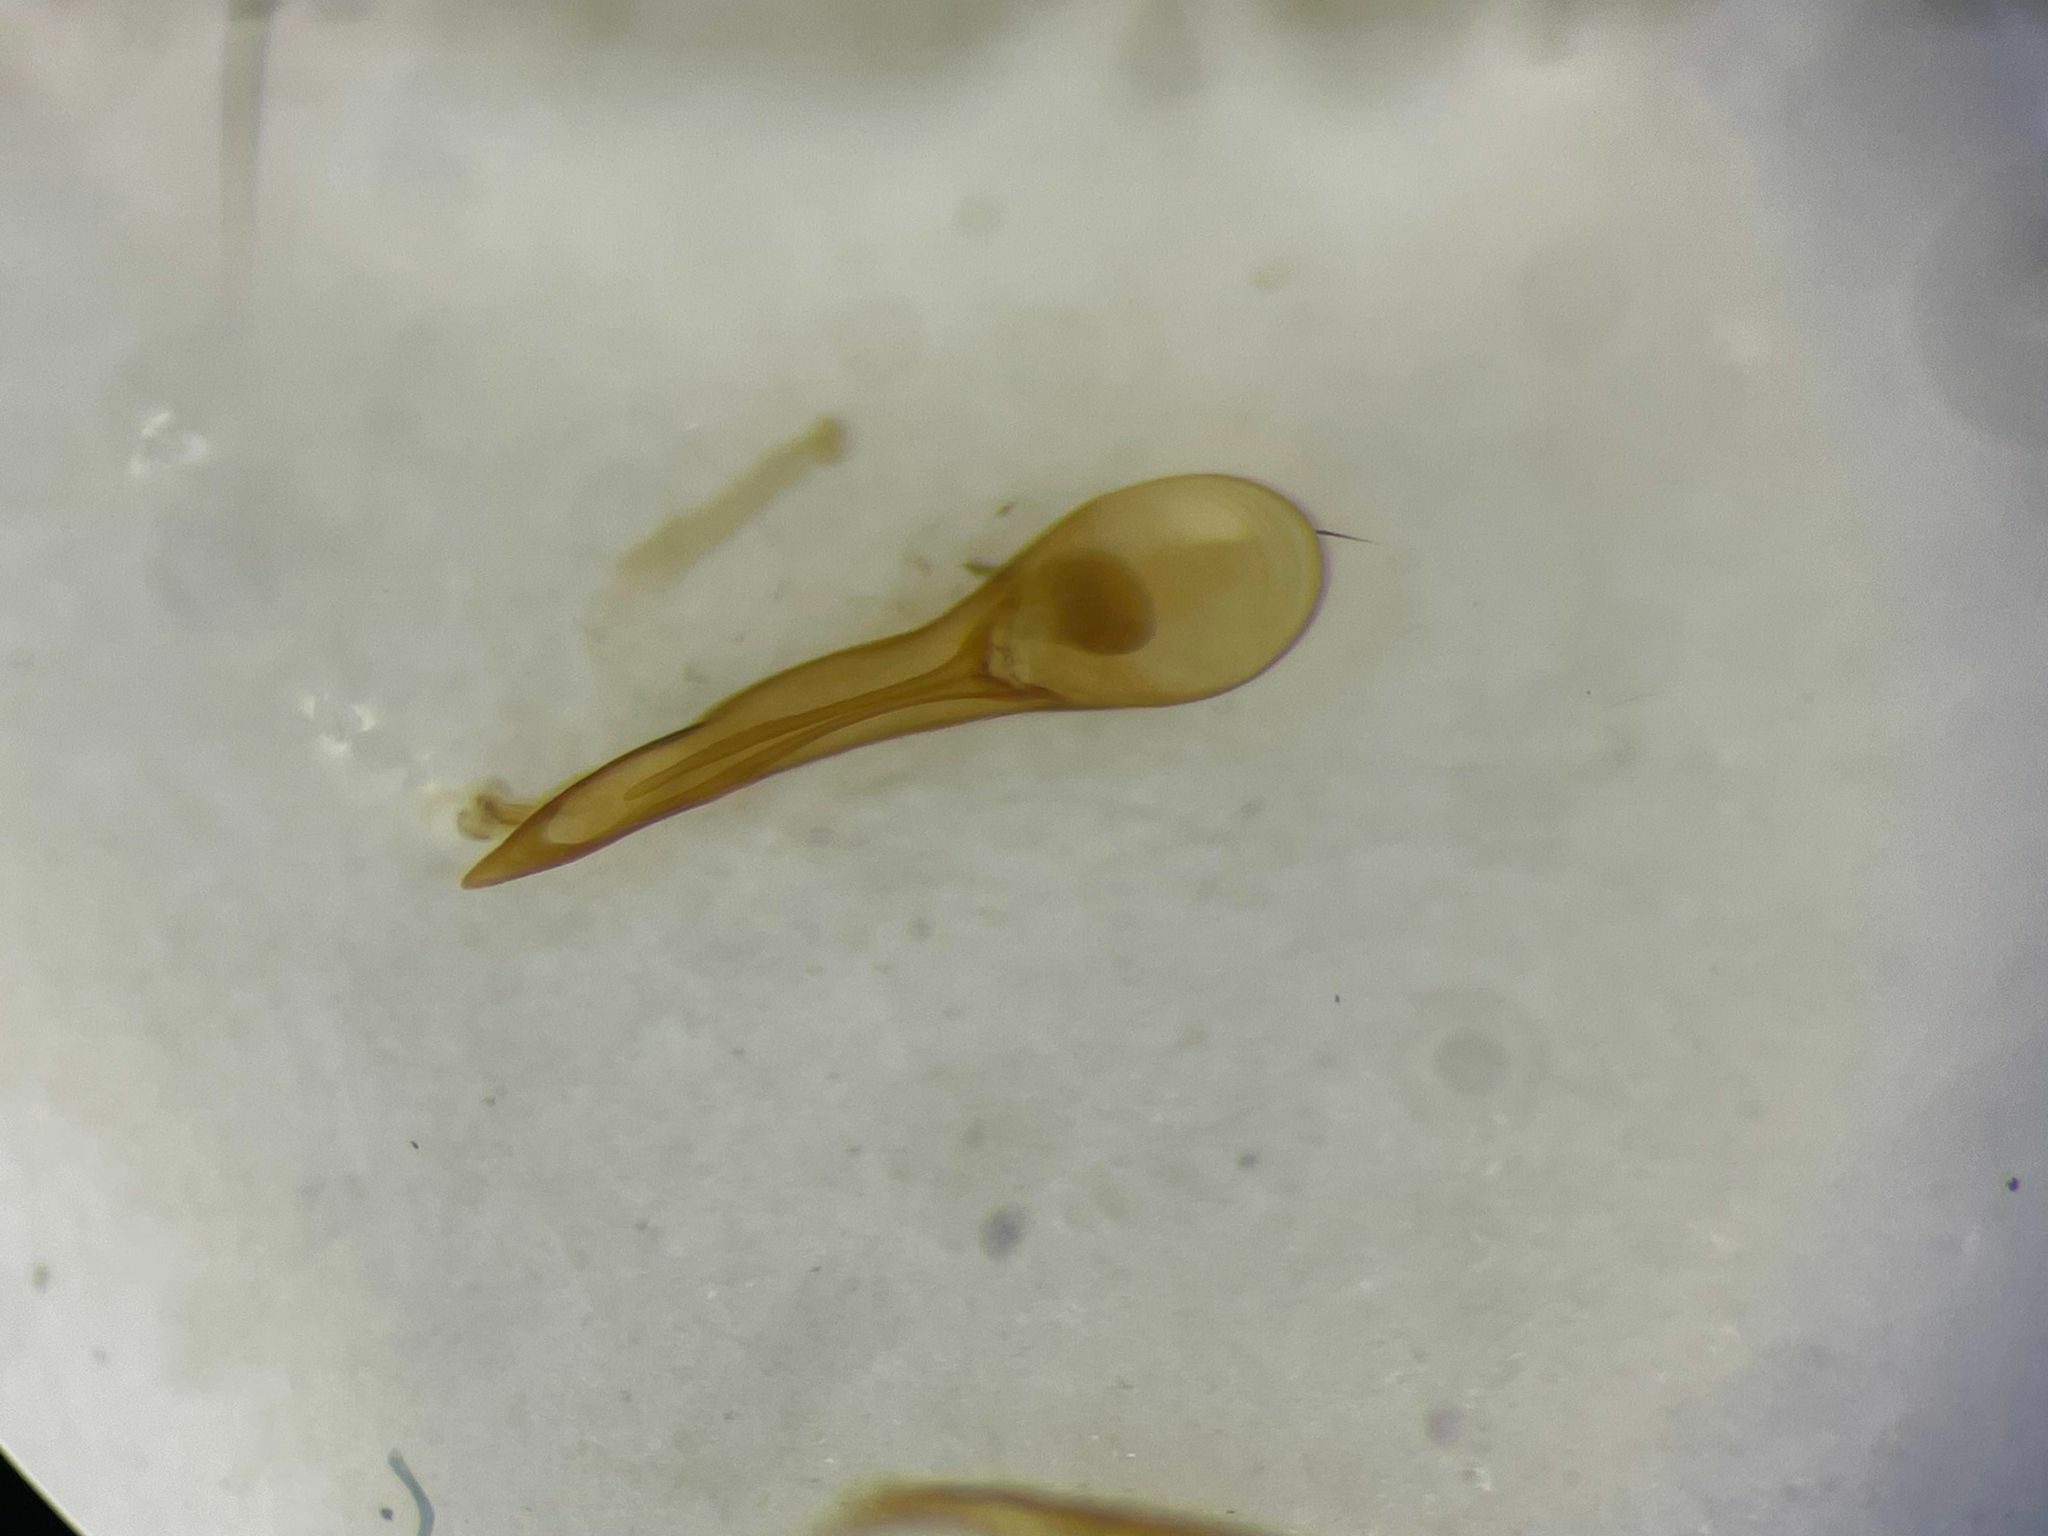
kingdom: Animalia
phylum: Arthropoda
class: Insecta
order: Coleoptera
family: Staphylinidae
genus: Erichsonius
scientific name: Erichsonius nanus
